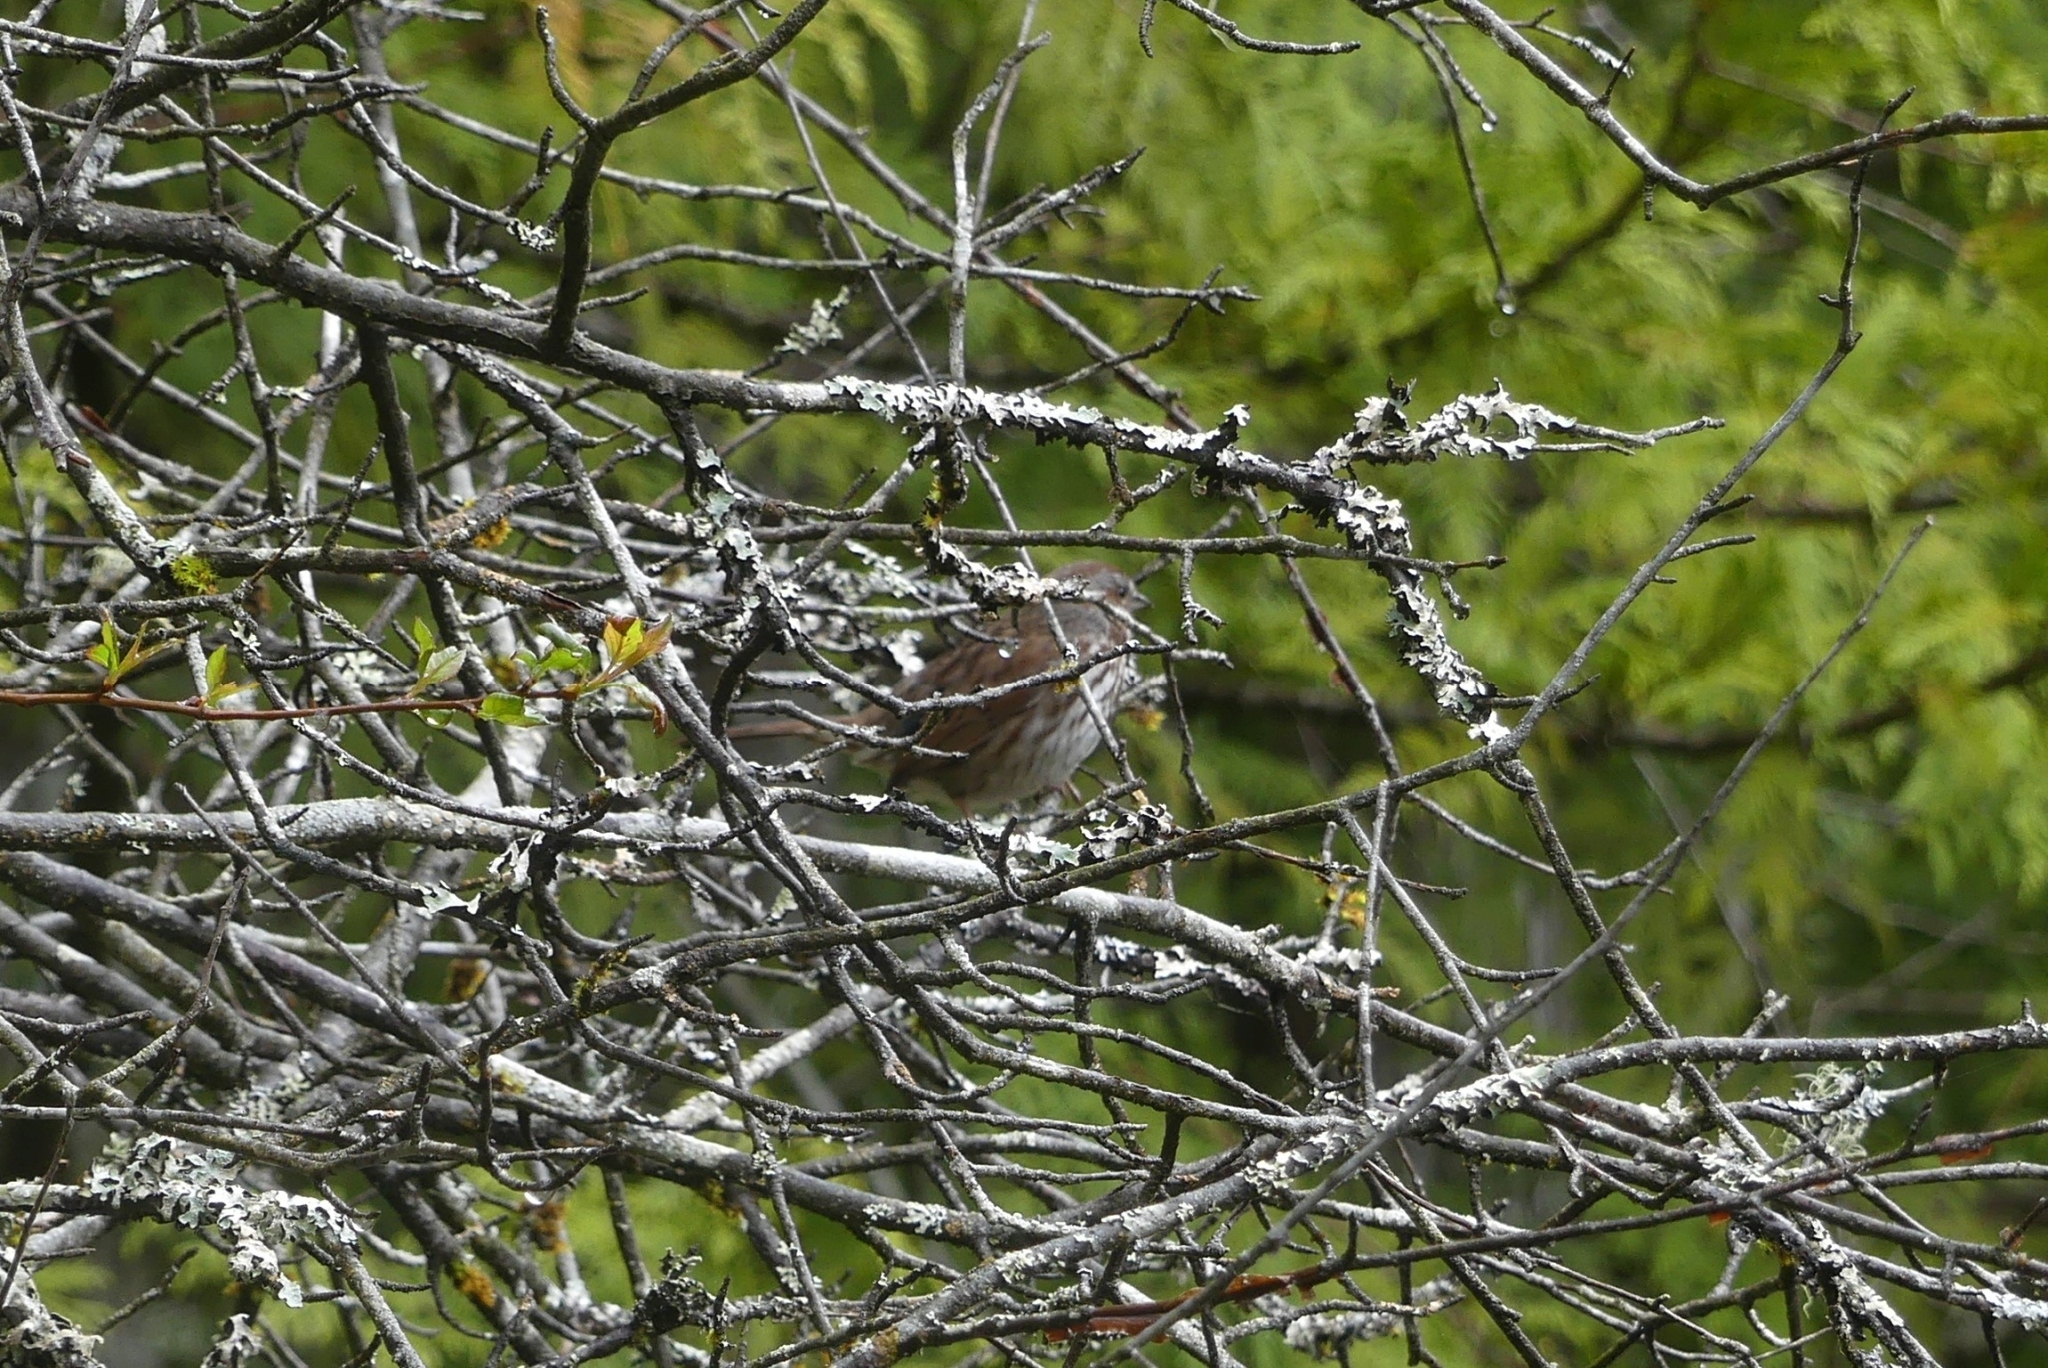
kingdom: Animalia
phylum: Chordata
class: Aves
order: Passeriformes
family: Passerellidae
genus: Melospiza
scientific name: Melospiza melodia
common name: Song sparrow
